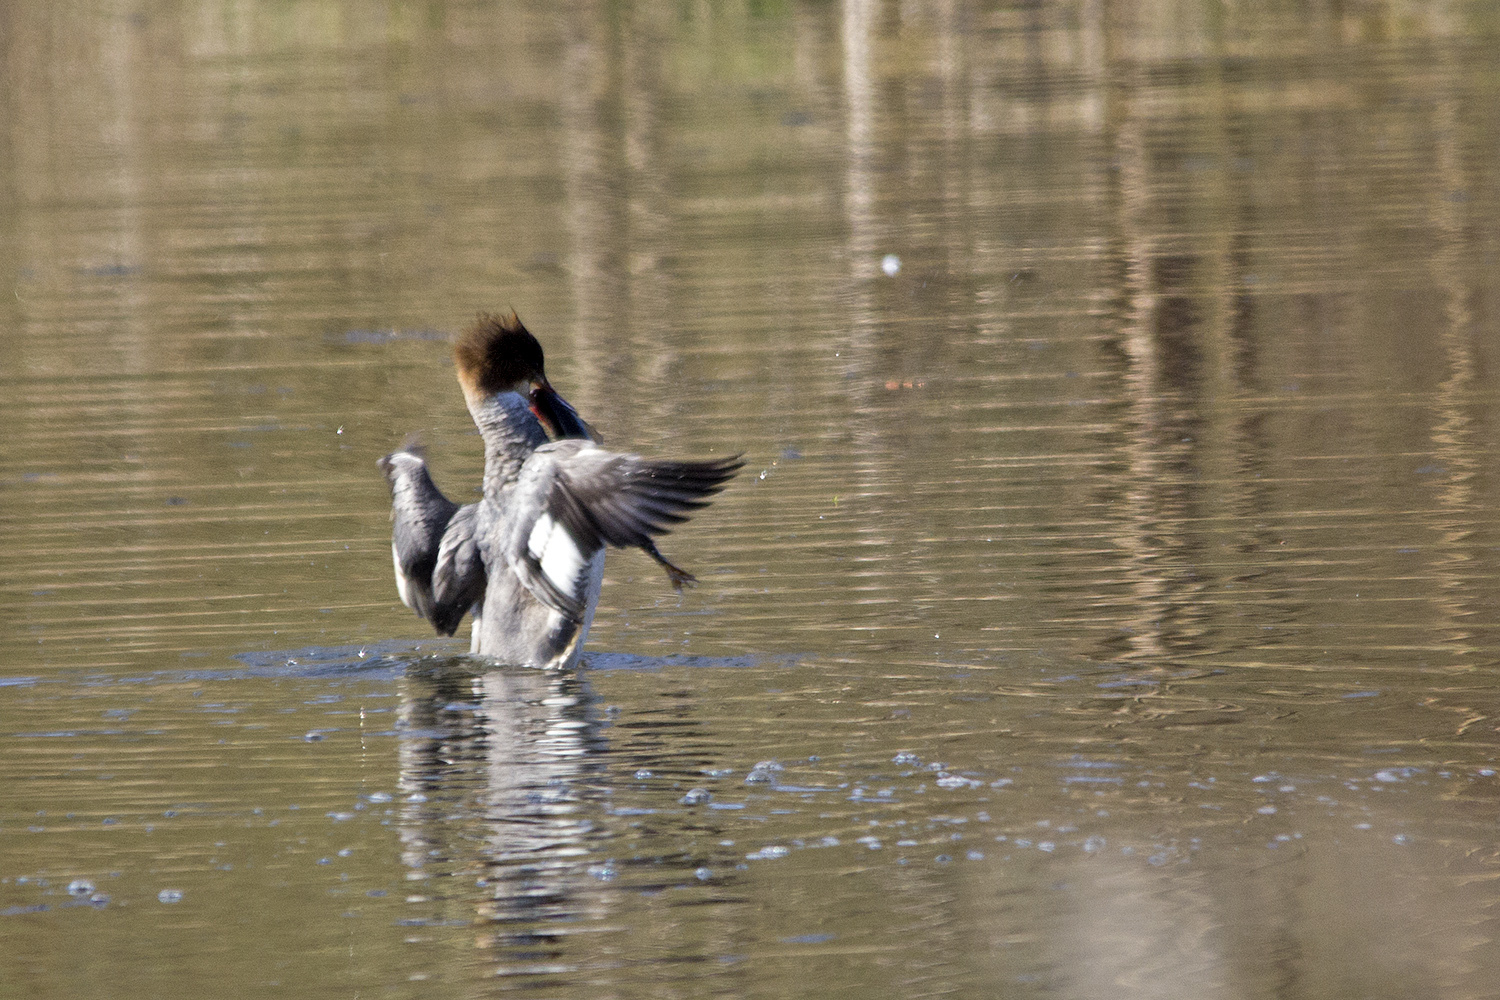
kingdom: Animalia
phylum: Chordata
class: Aves
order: Anseriformes
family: Anatidae
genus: Mergus
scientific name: Mergus merganser
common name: Common merganser
